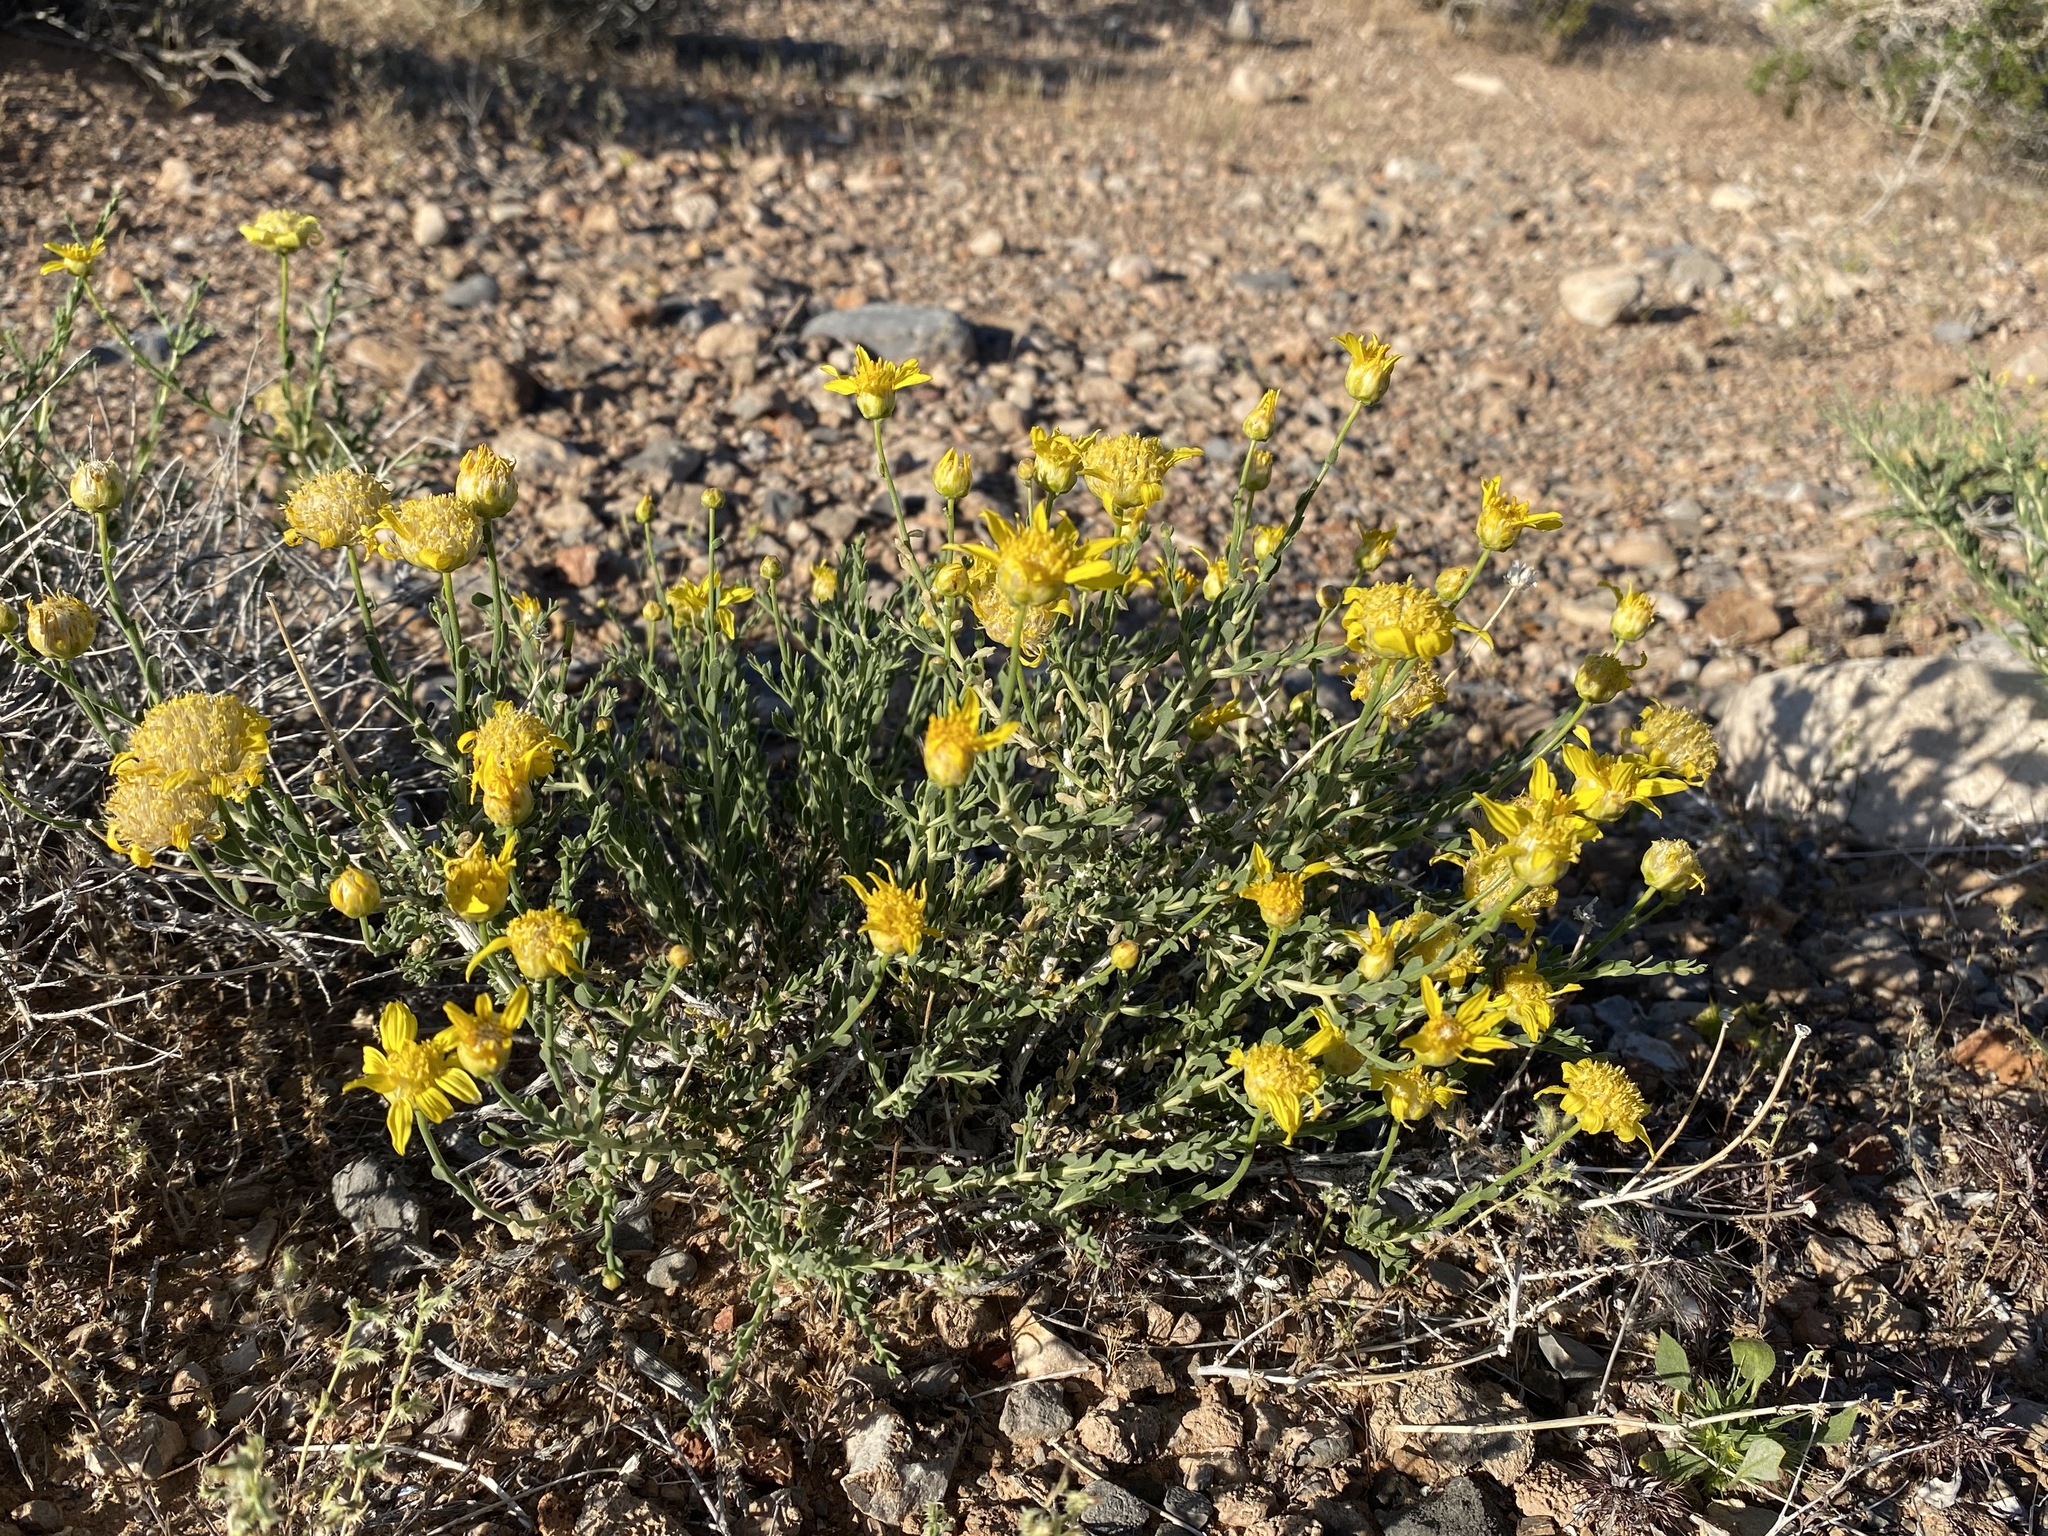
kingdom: Plantae
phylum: Tracheophyta
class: Magnoliopsida
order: Asterales
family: Asteraceae
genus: Acamptopappus
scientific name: Acamptopappus shockleyi
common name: Shockley's goldenhead
